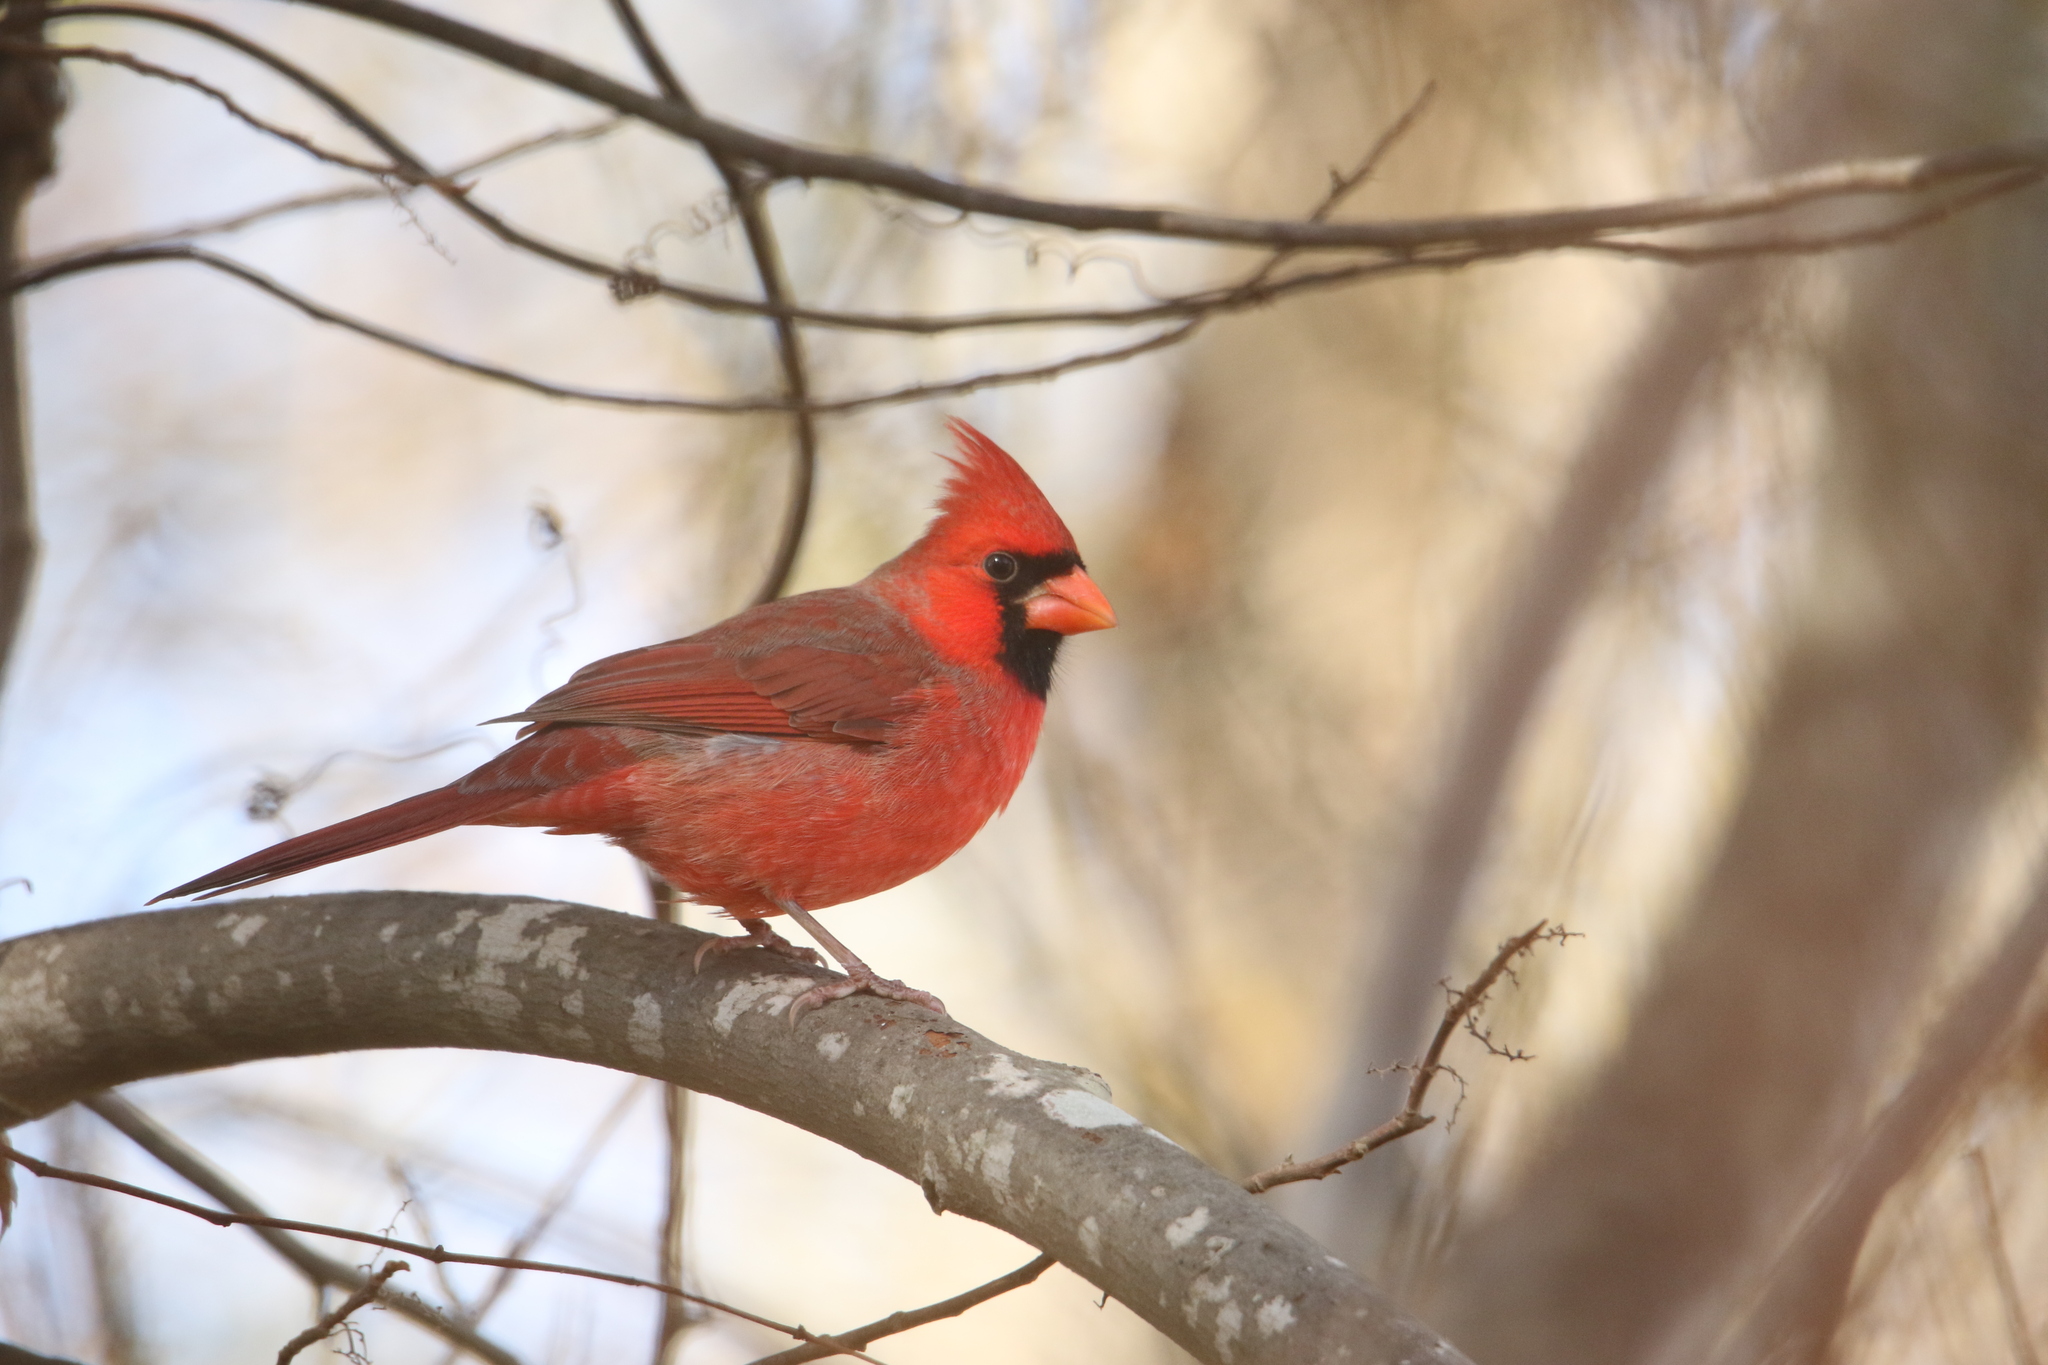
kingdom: Animalia
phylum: Chordata
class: Aves
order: Passeriformes
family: Cardinalidae
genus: Cardinalis
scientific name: Cardinalis cardinalis
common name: Northern cardinal
